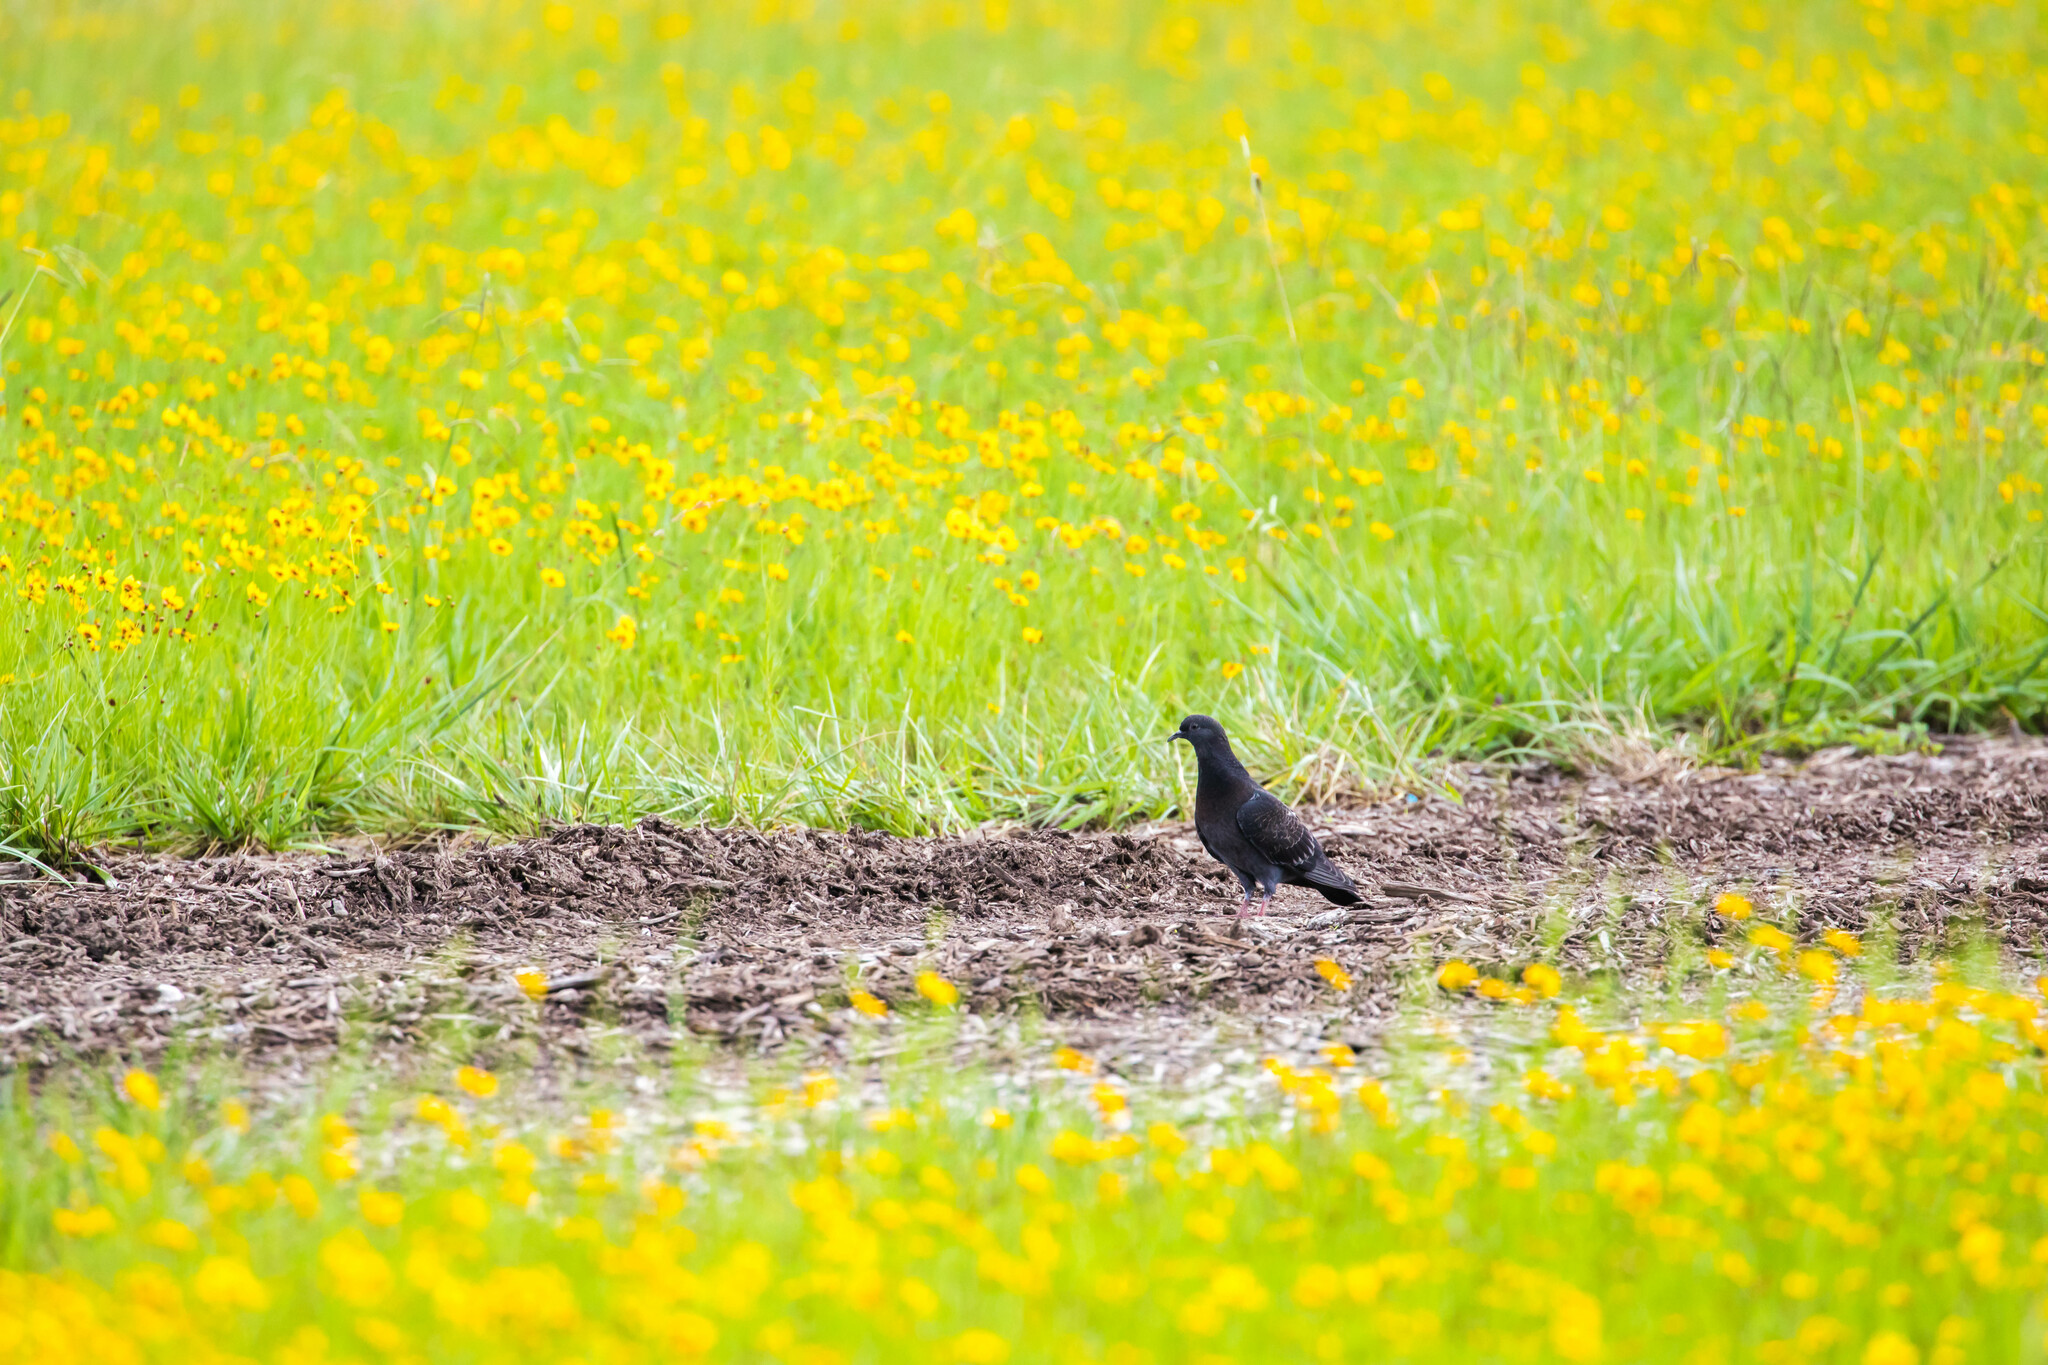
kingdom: Animalia
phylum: Chordata
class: Aves
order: Columbiformes
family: Columbidae
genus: Columba
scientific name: Columba livia
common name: Rock pigeon
